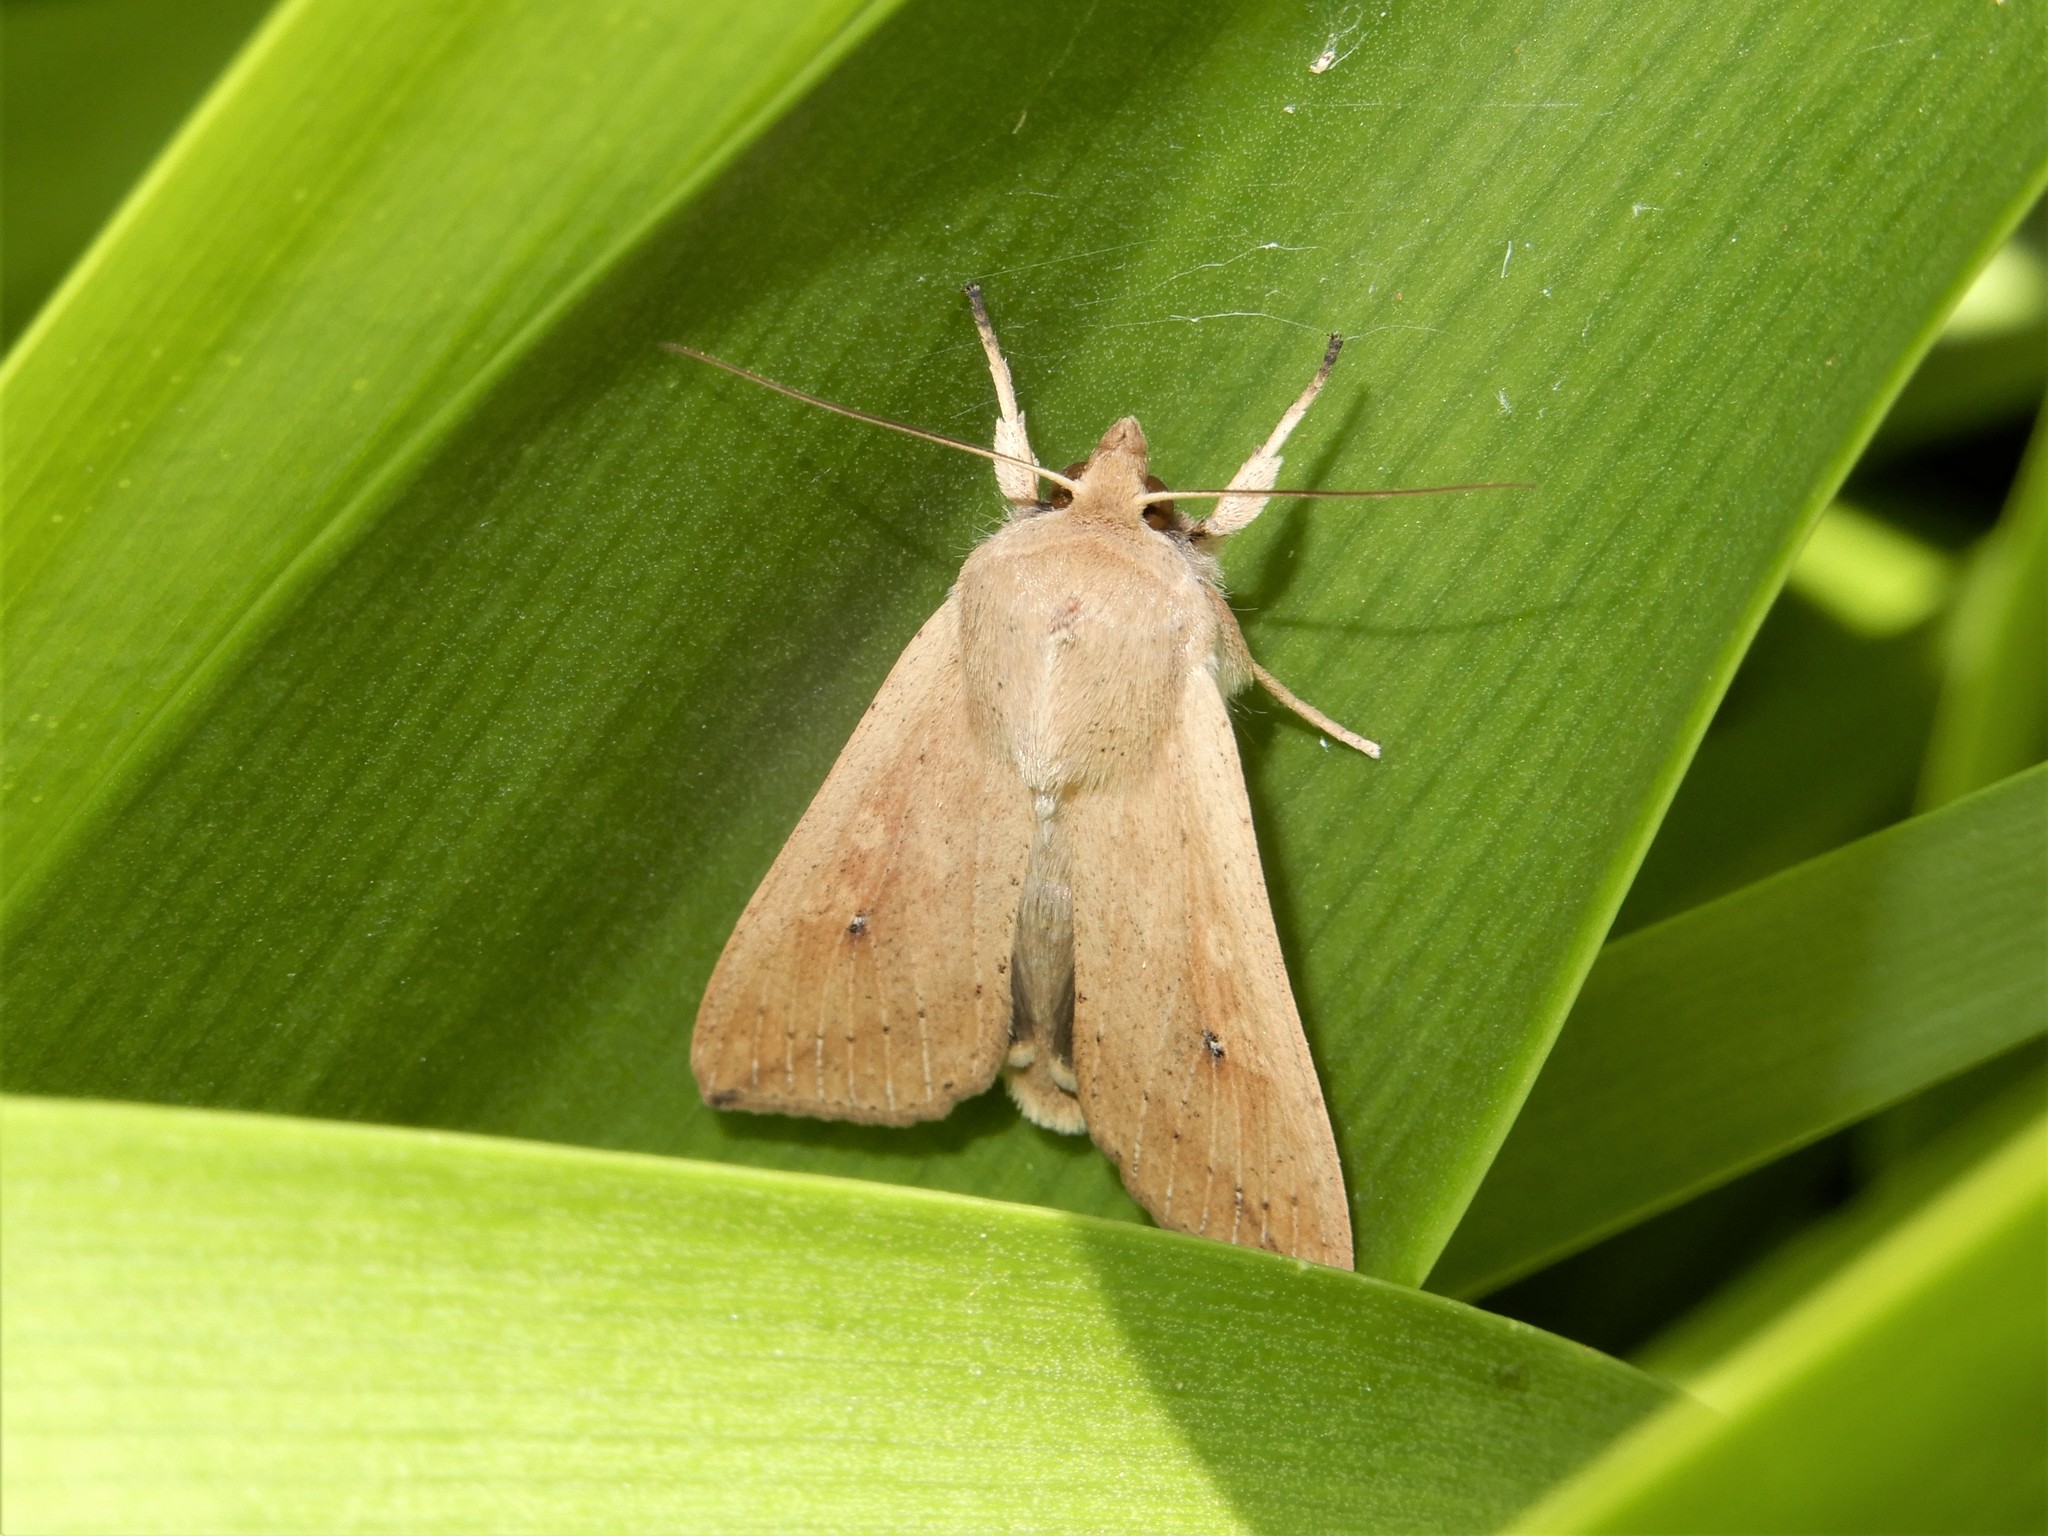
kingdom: Animalia
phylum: Arthropoda
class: Insecta
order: Lepidoptera
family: Noctuidae
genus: Mythimna
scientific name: Mythimna separata
